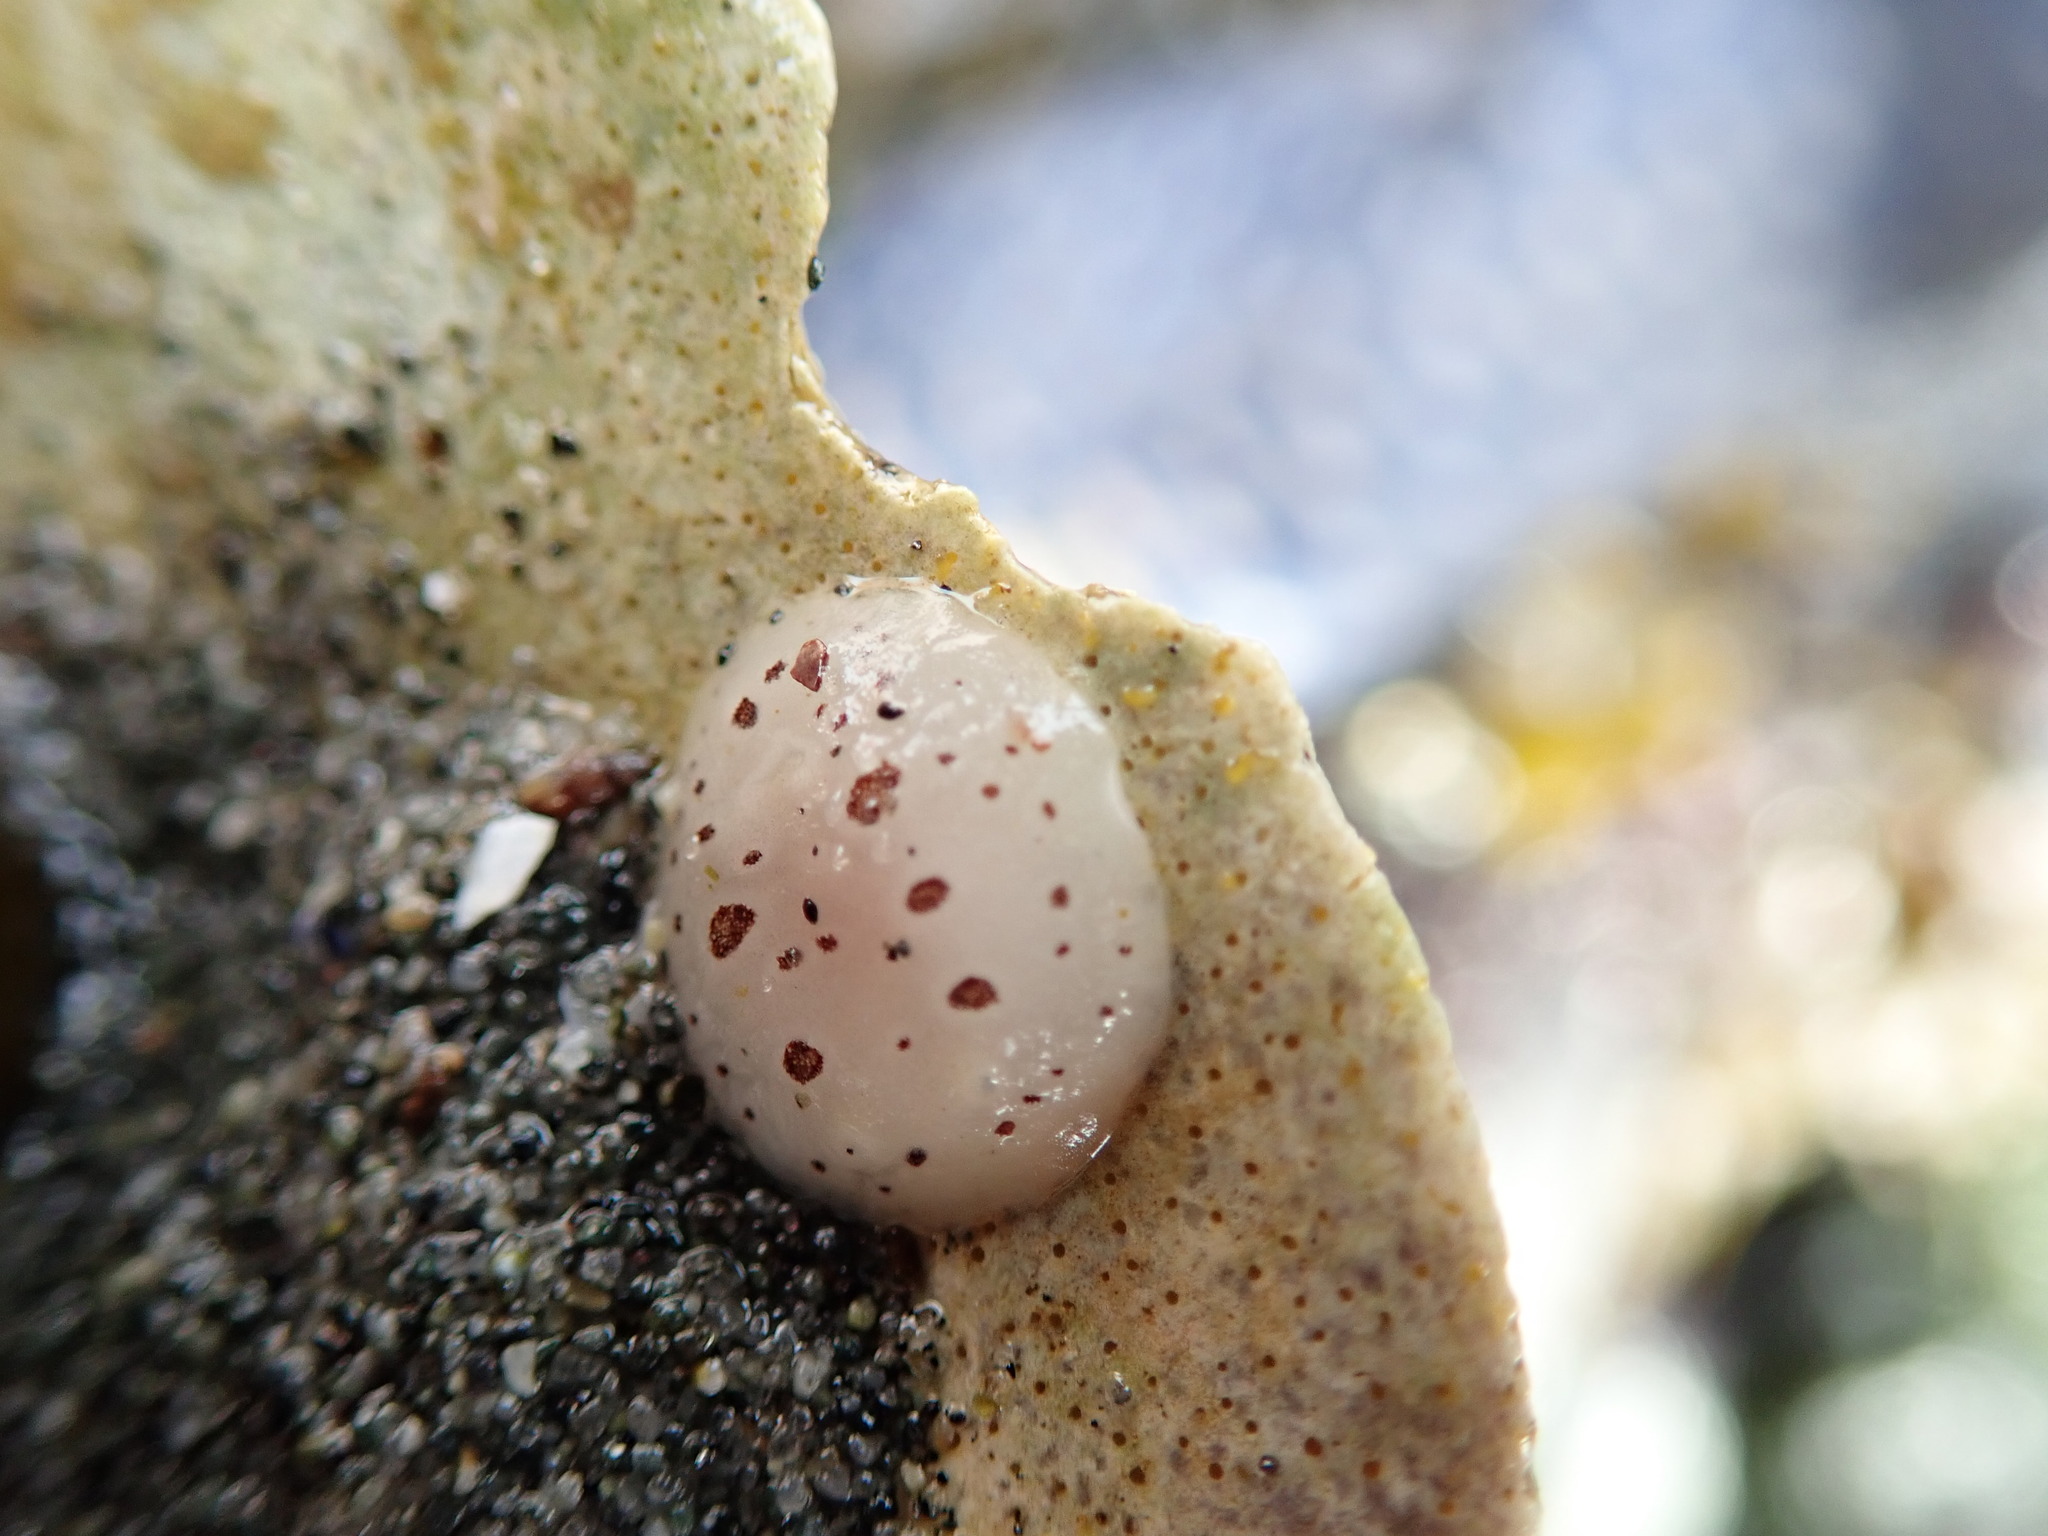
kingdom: Animalia
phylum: Mollusca
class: Gastropoda
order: Nudibranchia
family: Discodorididae
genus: Diaulula
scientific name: Diaulula odonoghuei
